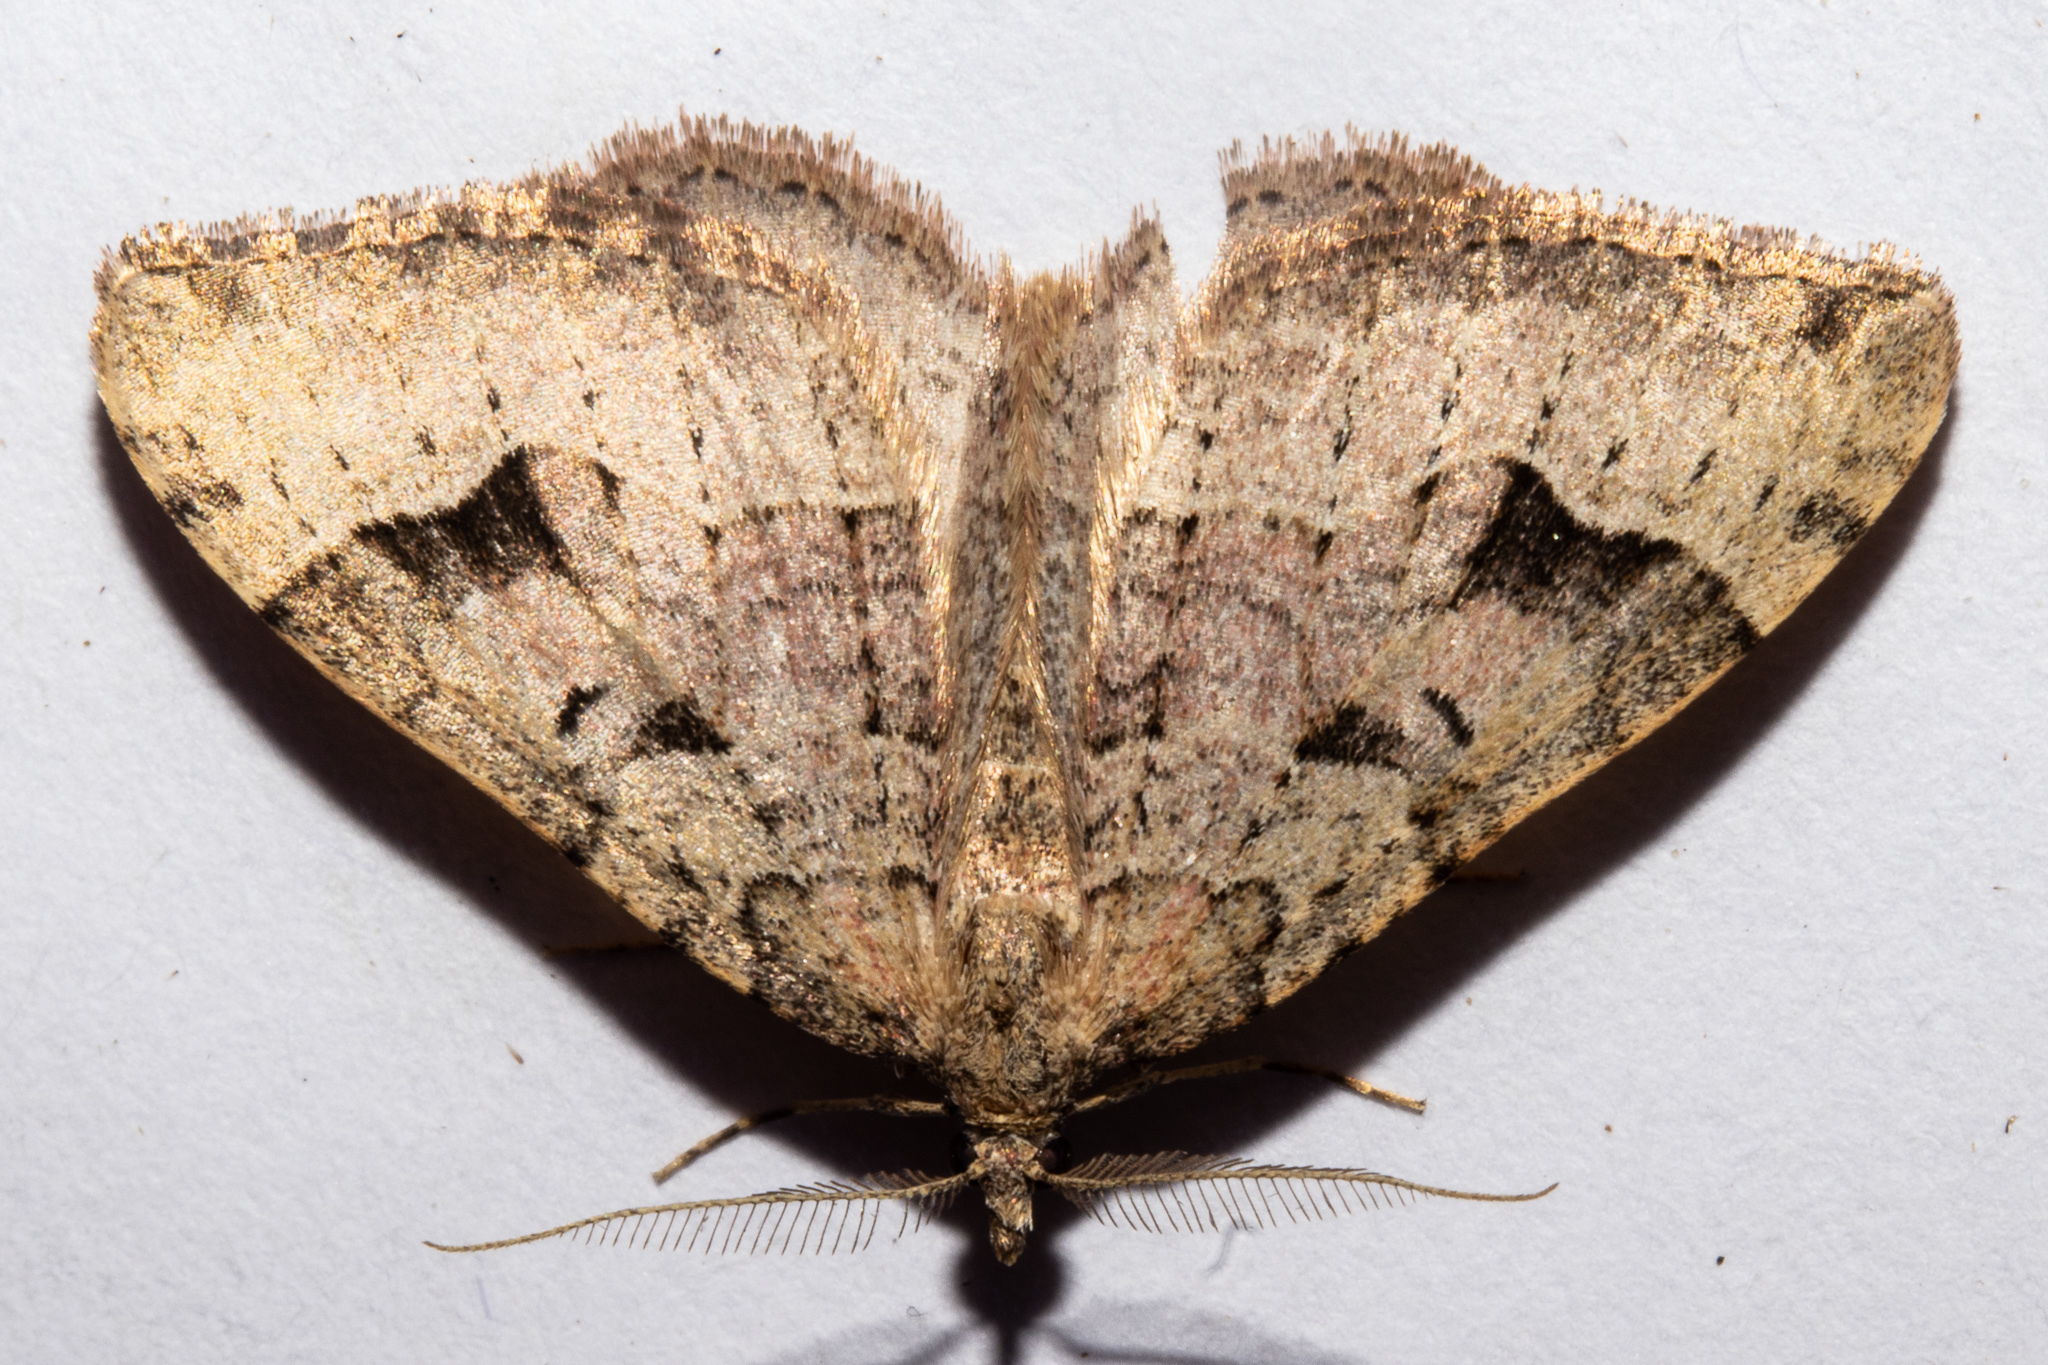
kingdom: Animalia
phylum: Arthropoda
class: Insecta
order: Lepidoptera
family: Geometridae
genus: Epyaxa
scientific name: Epyaxa rosearia
